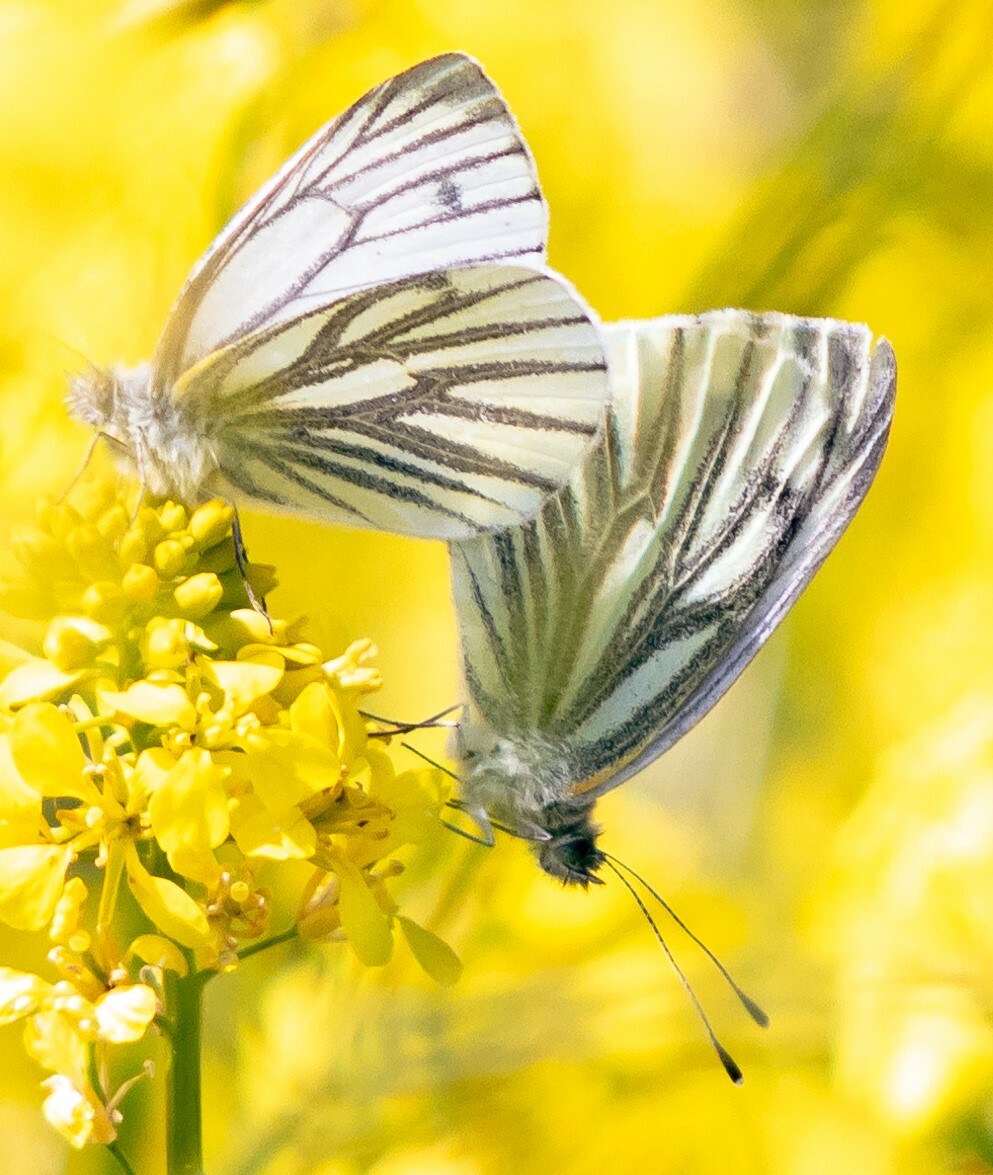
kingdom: Animalia
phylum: Arthropoda
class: Insecta
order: Lepidoptera
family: Pieridae
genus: Pieris
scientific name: Pieris napi
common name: Green-veined white
